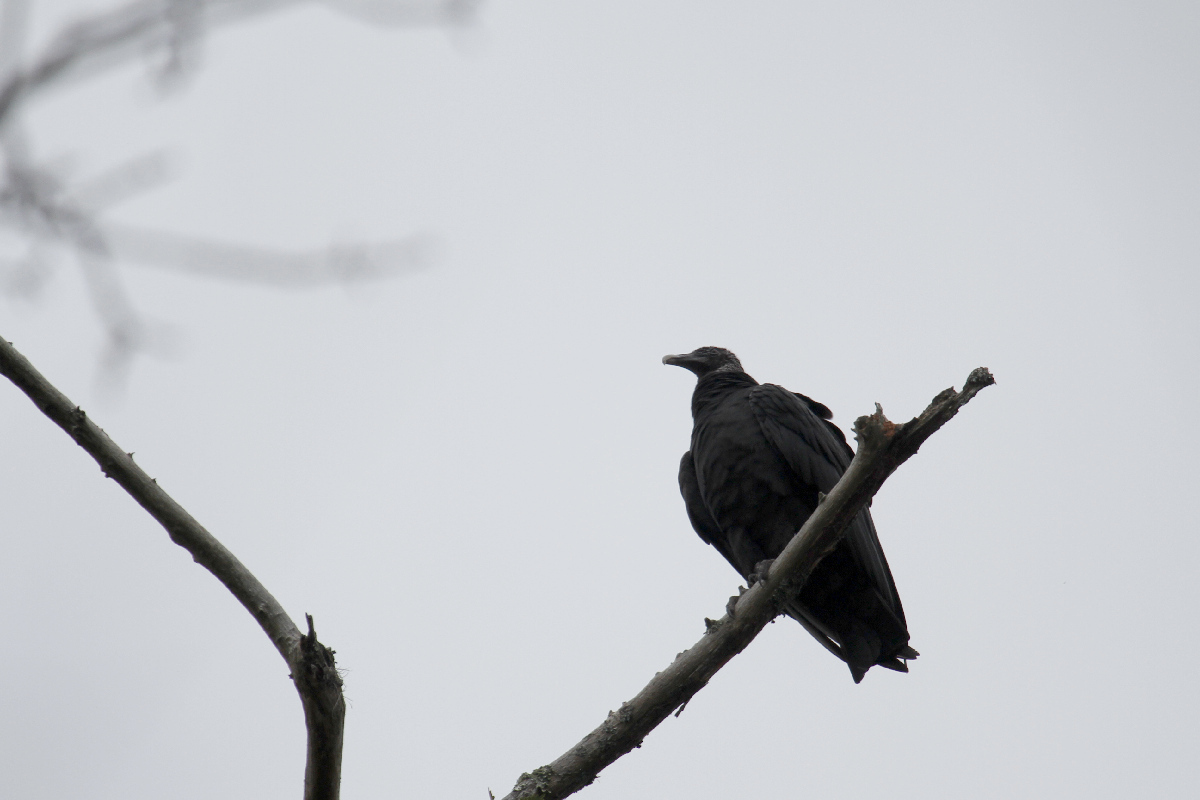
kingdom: Animalia
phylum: Chordata
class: Aves
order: Accipitriformes
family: Cathartidae
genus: Coragyps
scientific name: Coragyps atratus
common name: Black vulture
